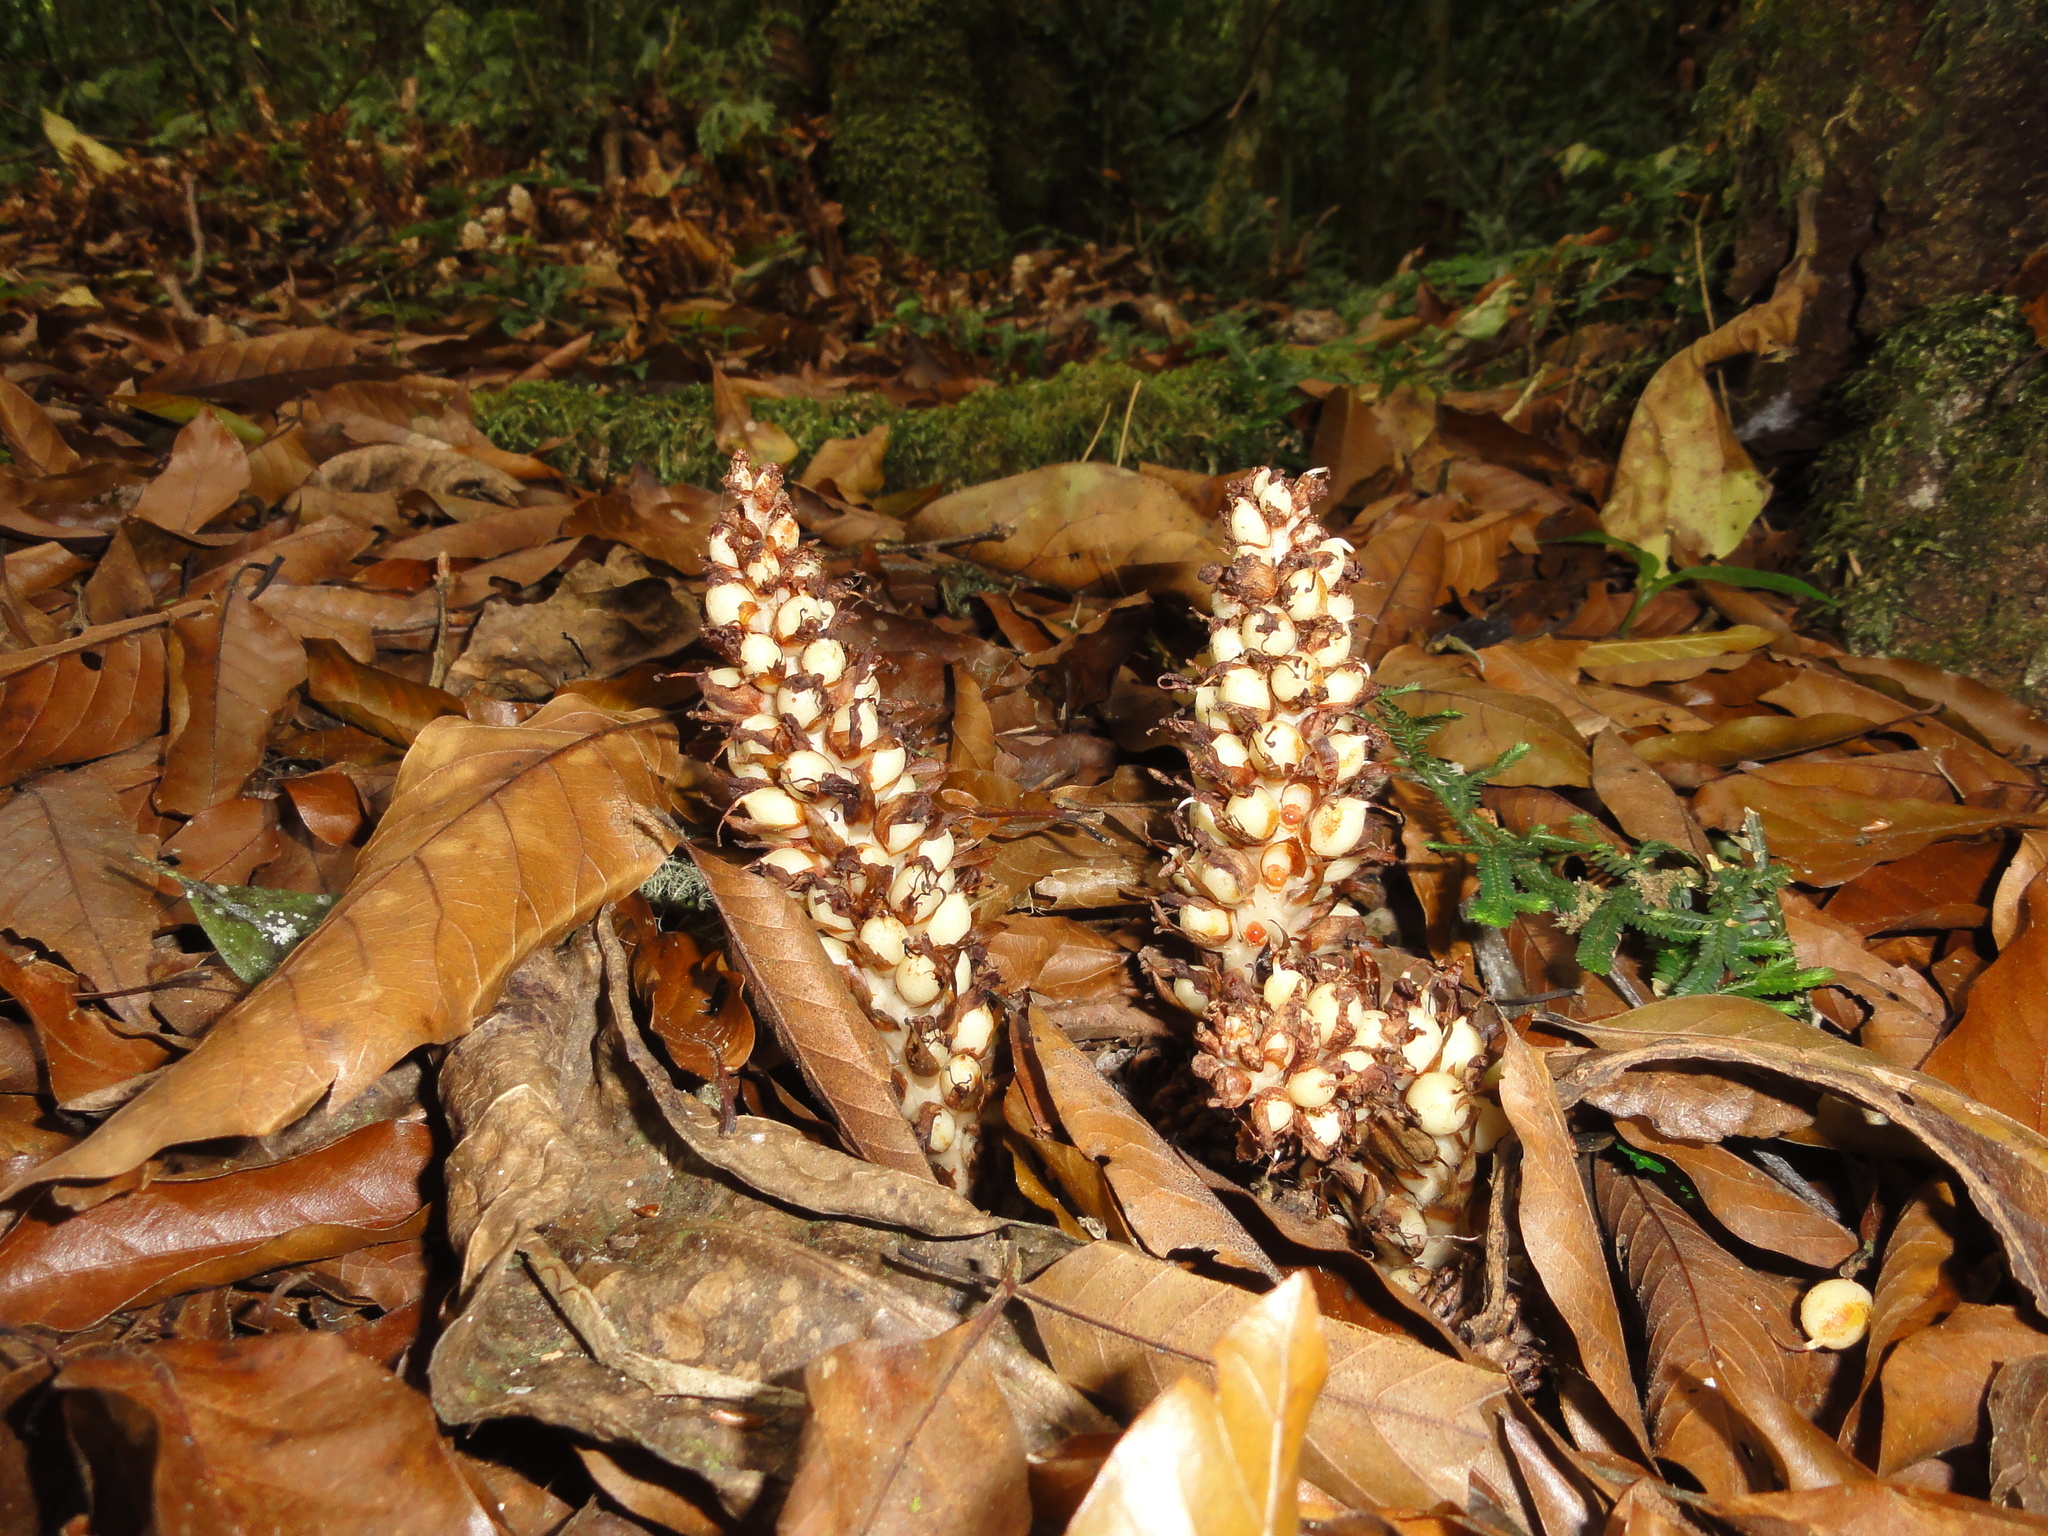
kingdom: Plantae
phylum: Tracheophyta
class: Magnoliopsida
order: Lamiales
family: Orobanchaceae
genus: Conopholis
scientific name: Conopholis alpina
